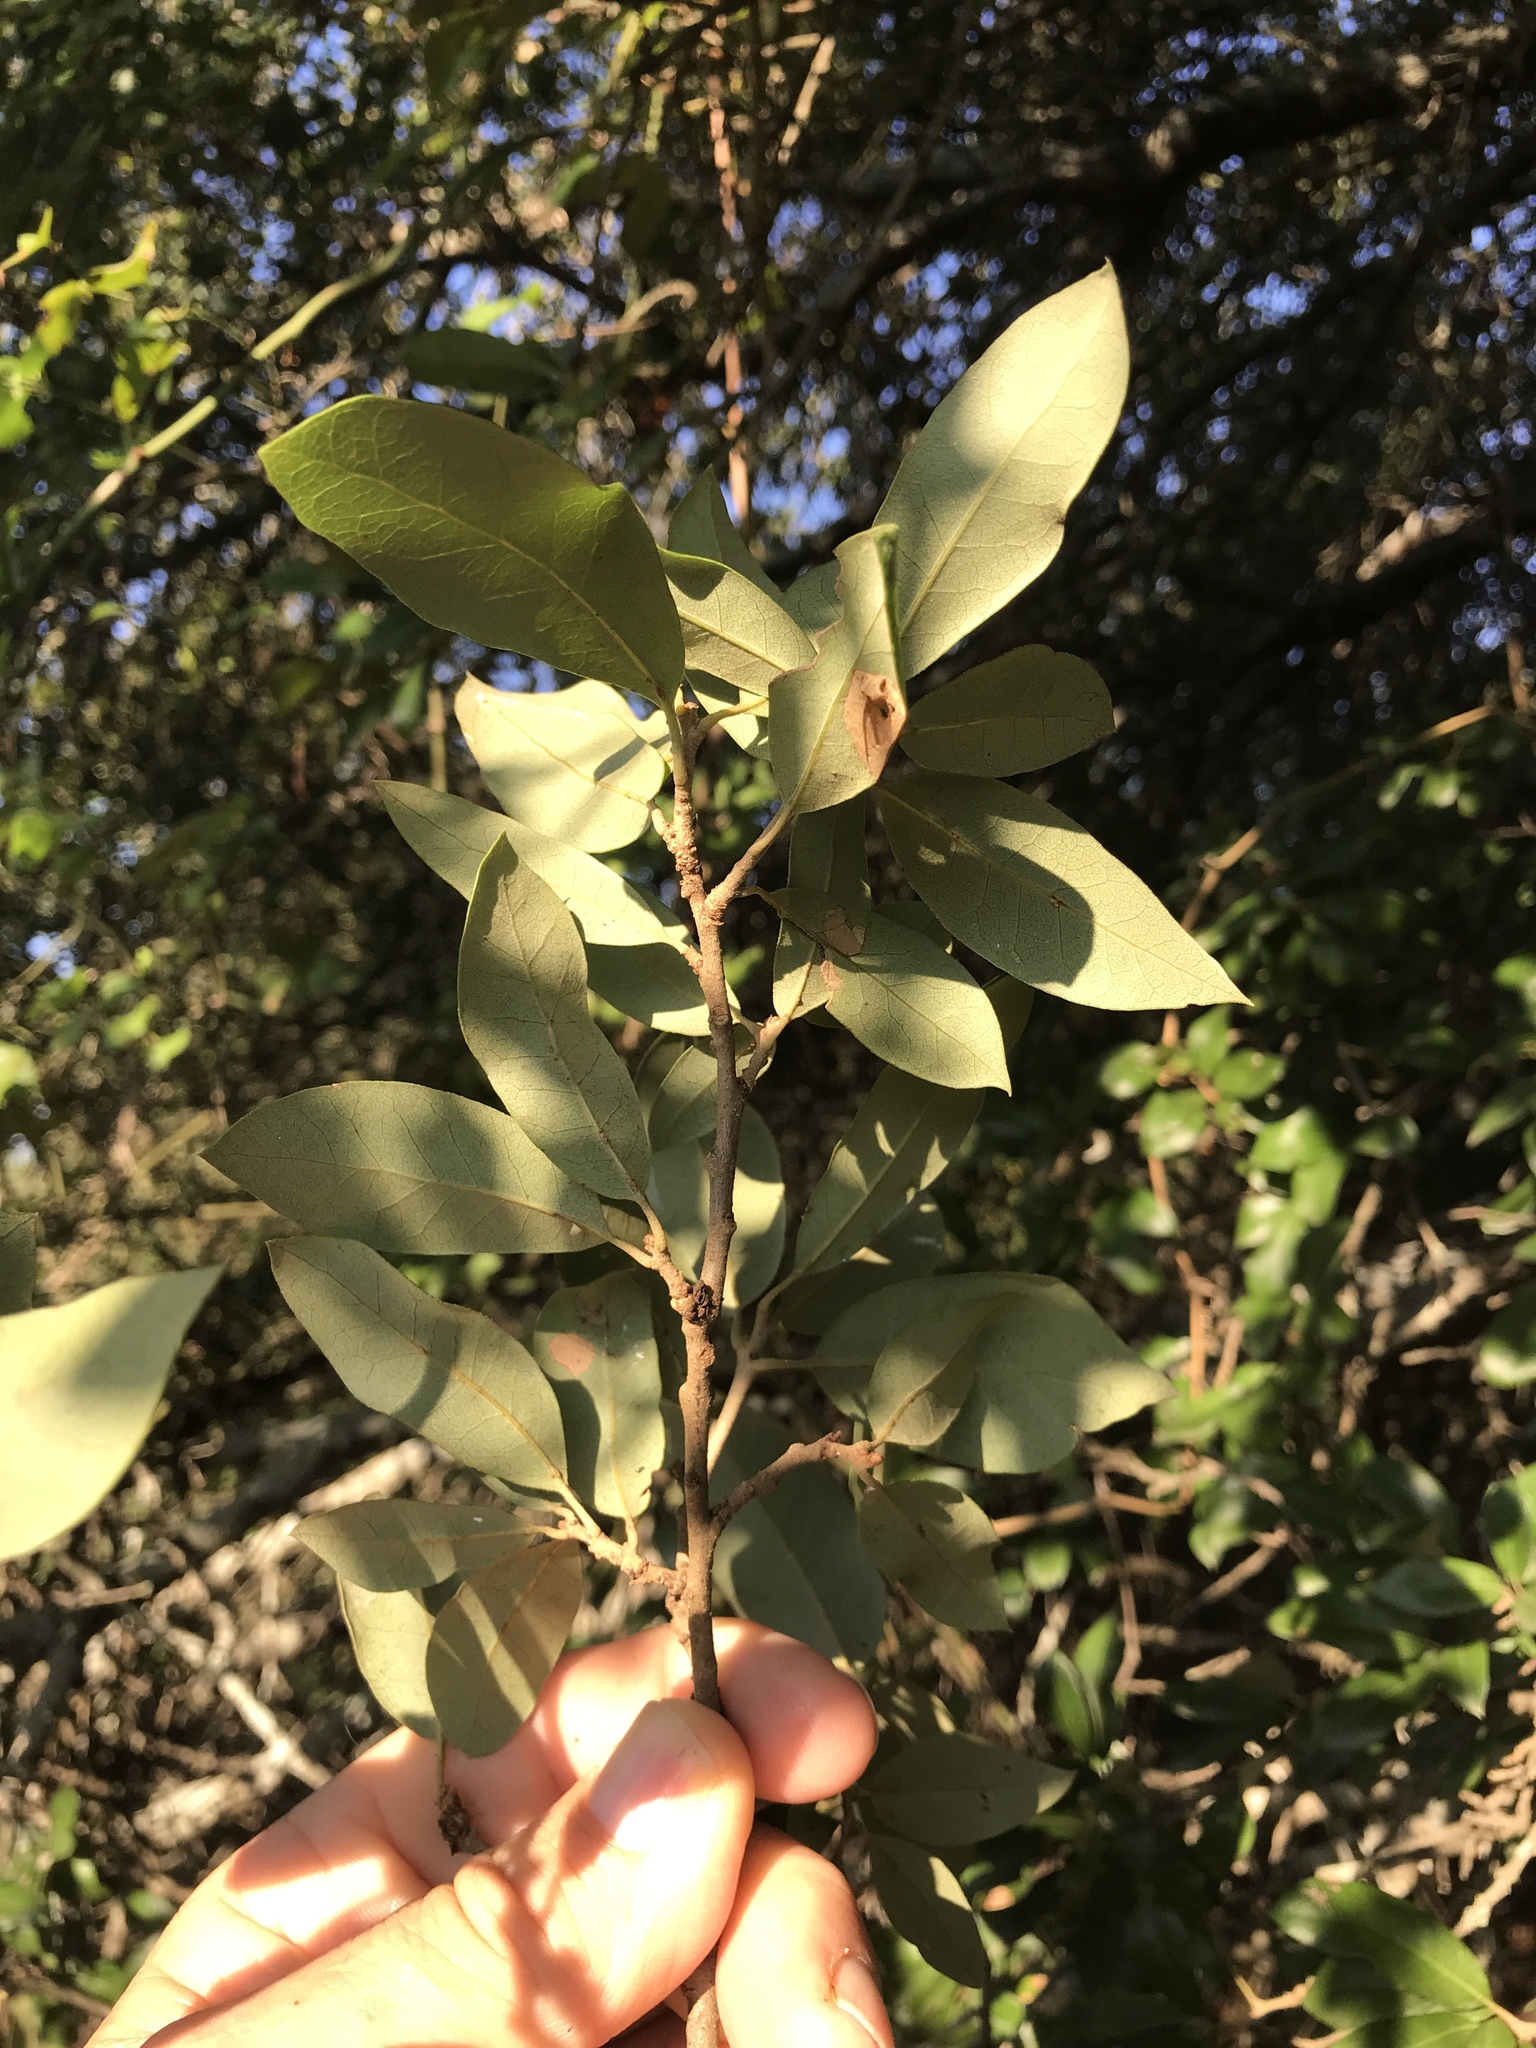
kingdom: Plantae
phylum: Tracheophyta
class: Magnoliopsida
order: Fagales
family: Fagaceae
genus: Quercus
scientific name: Quercus fusiformis
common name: Texas live oak
